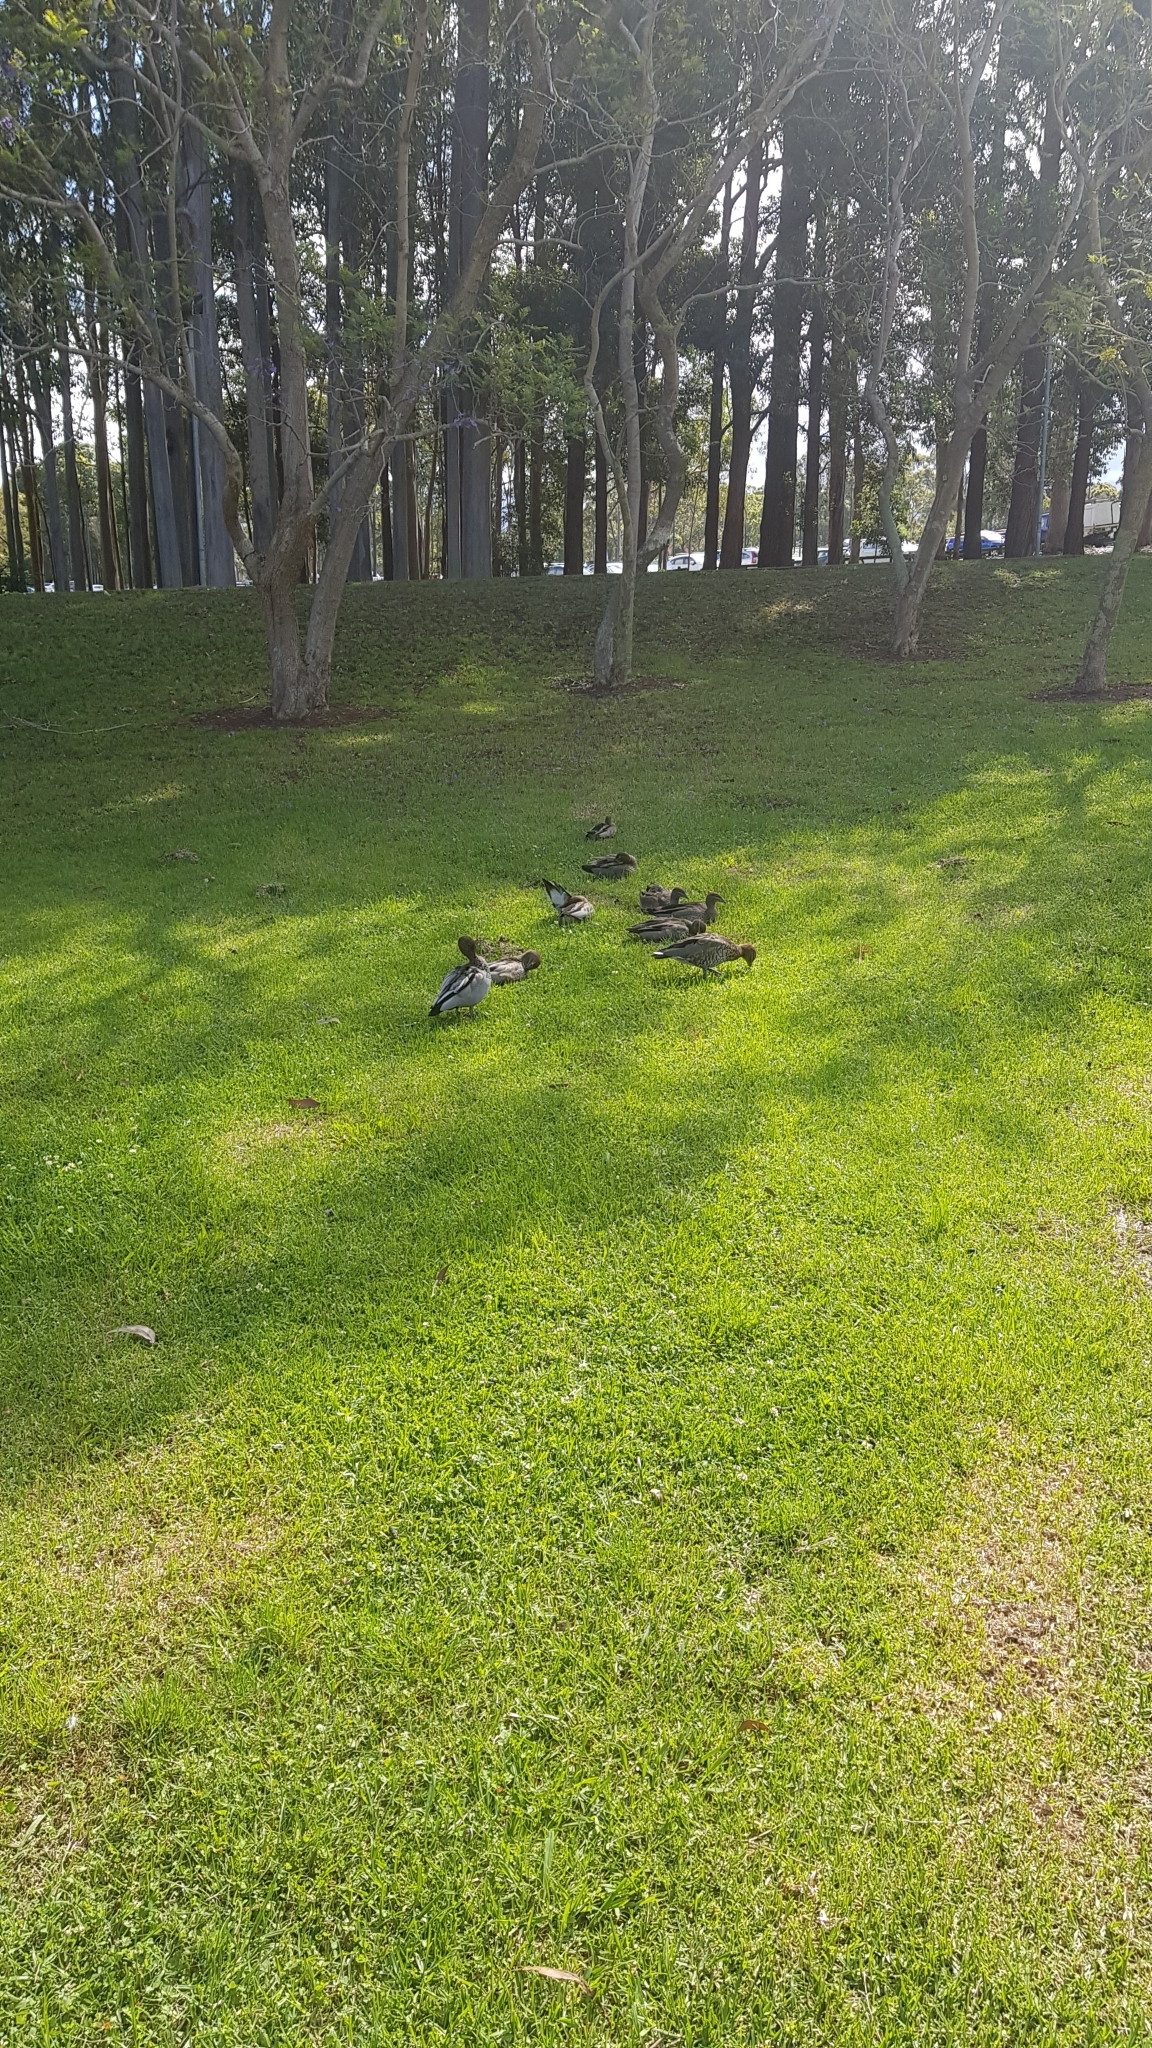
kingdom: Animalia
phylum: Chordata
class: Aves
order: Anseriformes
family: Anatidae
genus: Chenonetta
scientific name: Chenonetta jubata
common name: Maned duck
